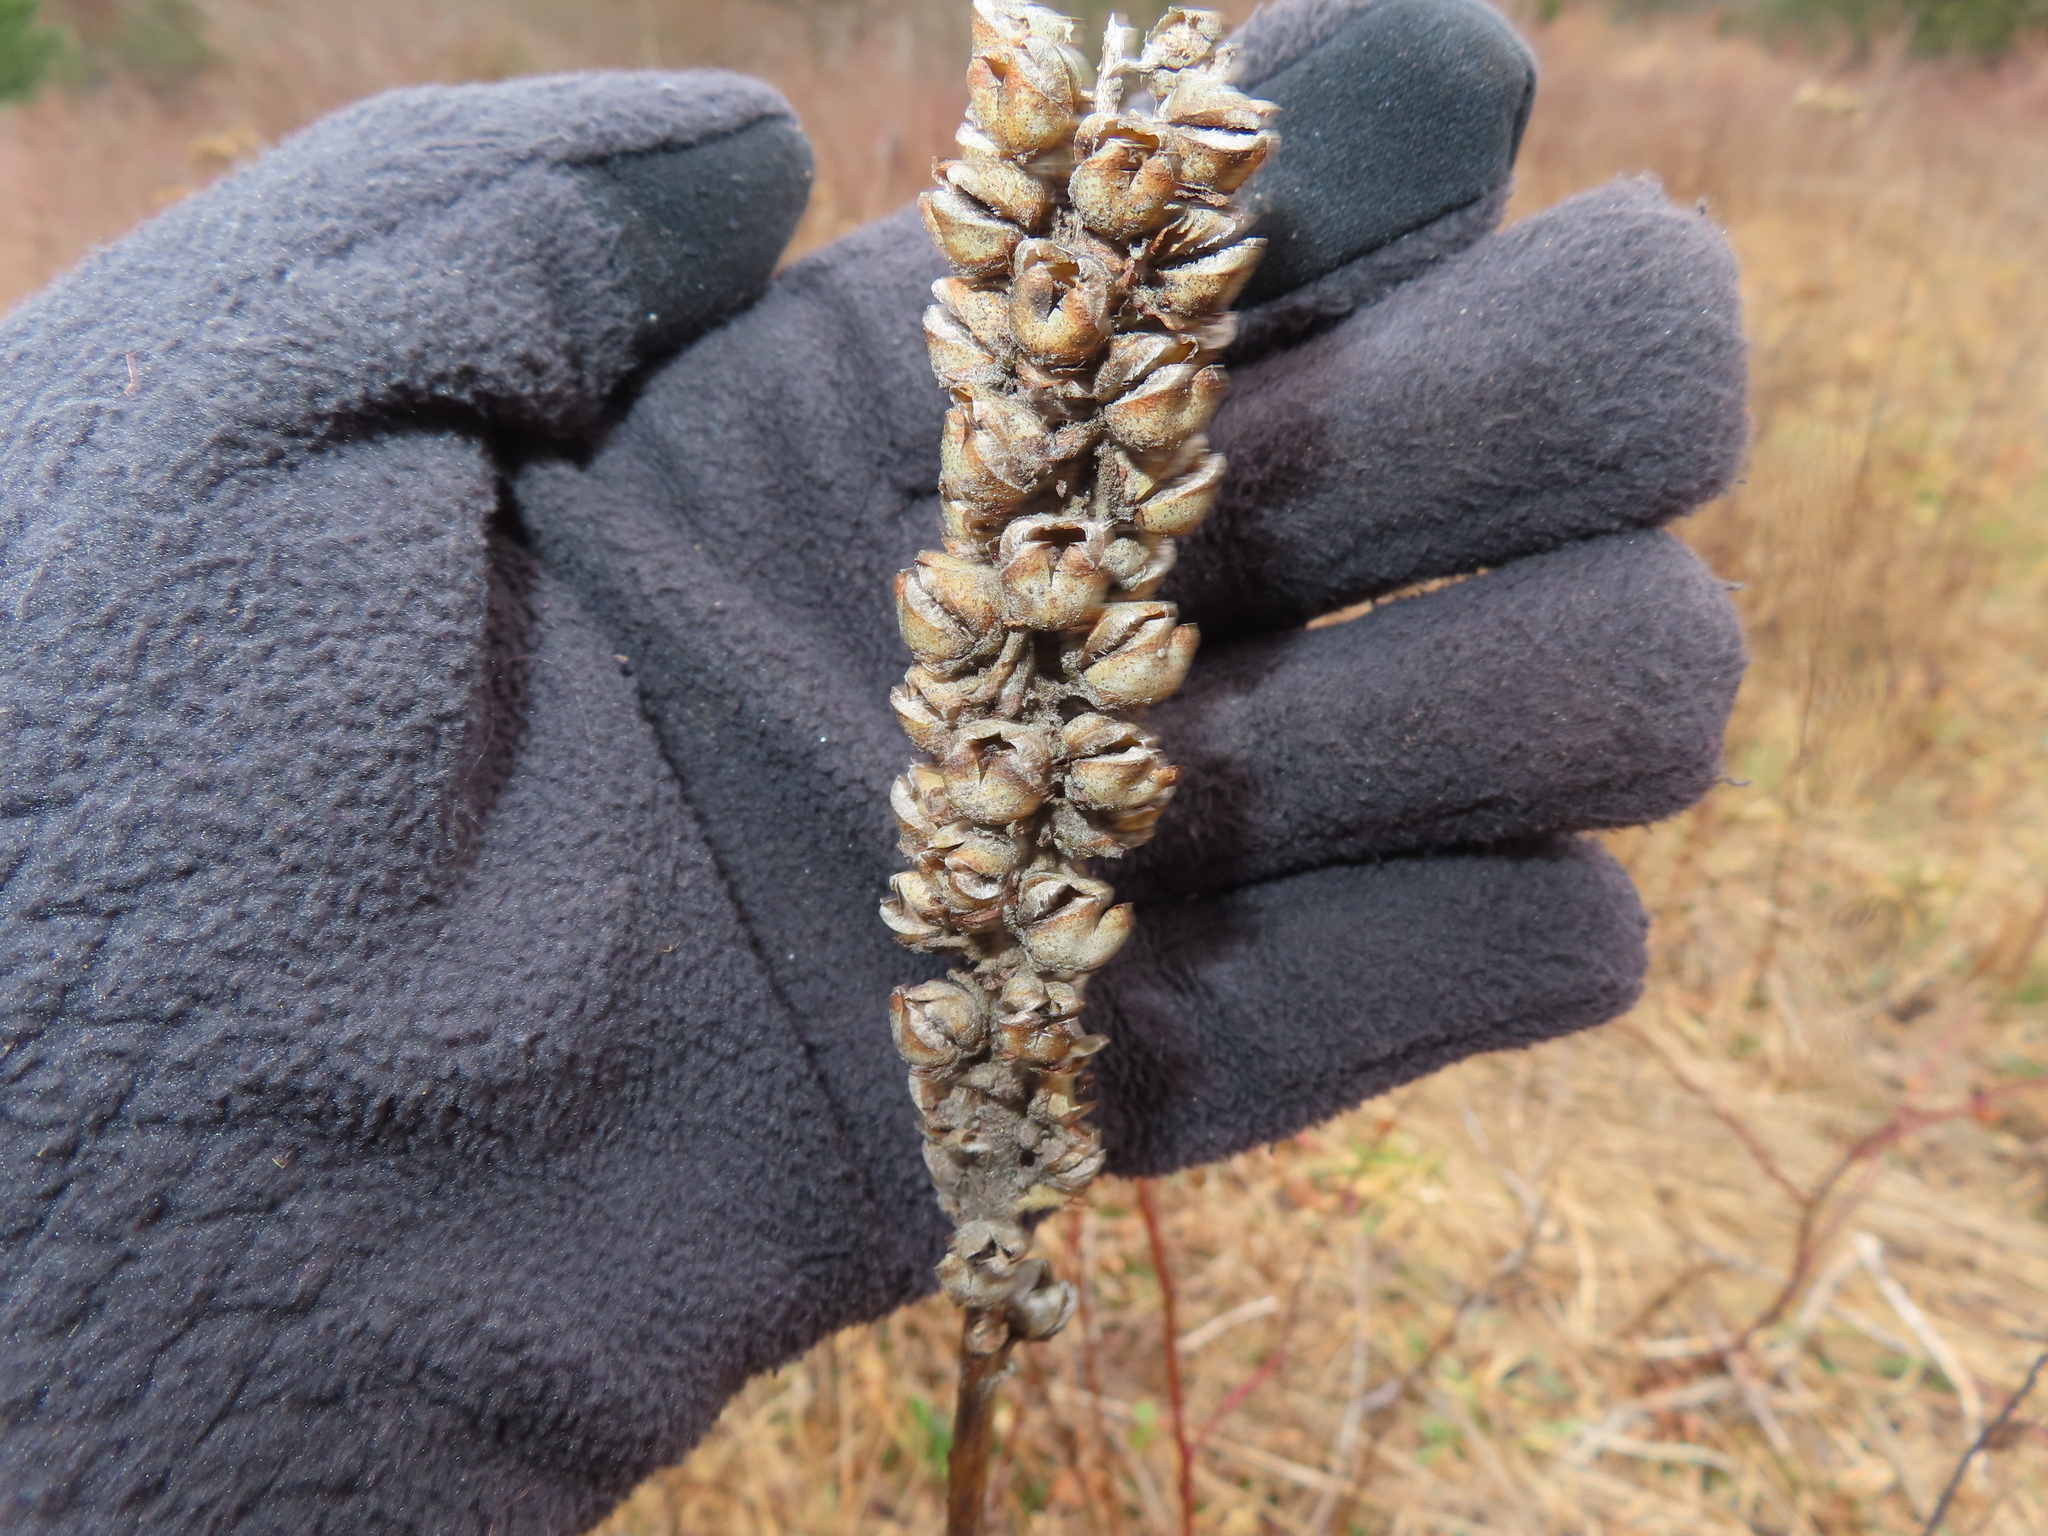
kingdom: Plantae
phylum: Tracheophyta
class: Magnoliopsida
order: Lamiales
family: Scrophulariaceae
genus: Verbascum
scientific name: Verbascum thapsus
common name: Common mullein
